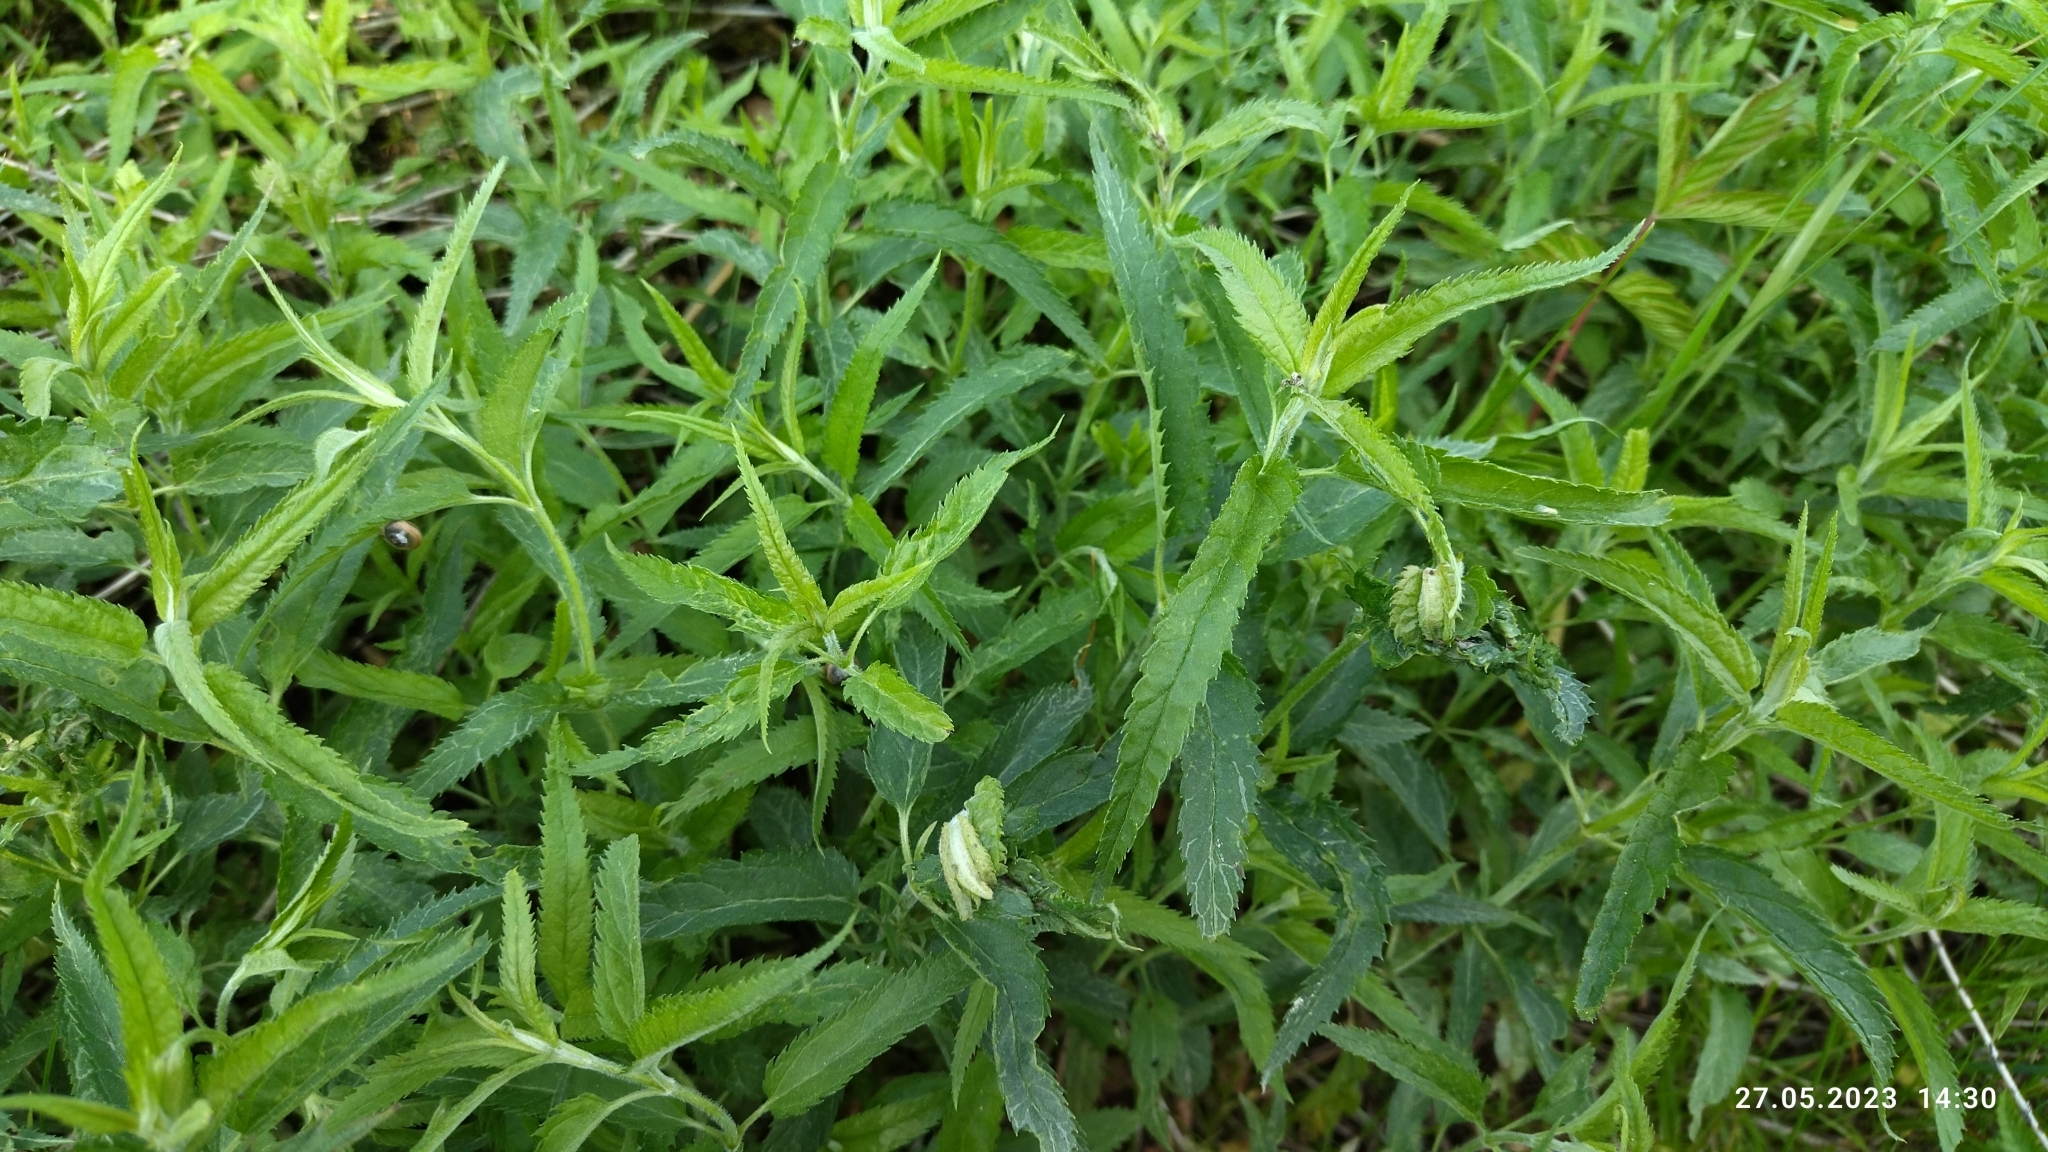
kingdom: Plantae
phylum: Tracheophyta
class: Magnoliopsida
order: Lamiales
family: Plantaginaceae
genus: Veronica
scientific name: Veronica longifolia
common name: Garden speedwell
